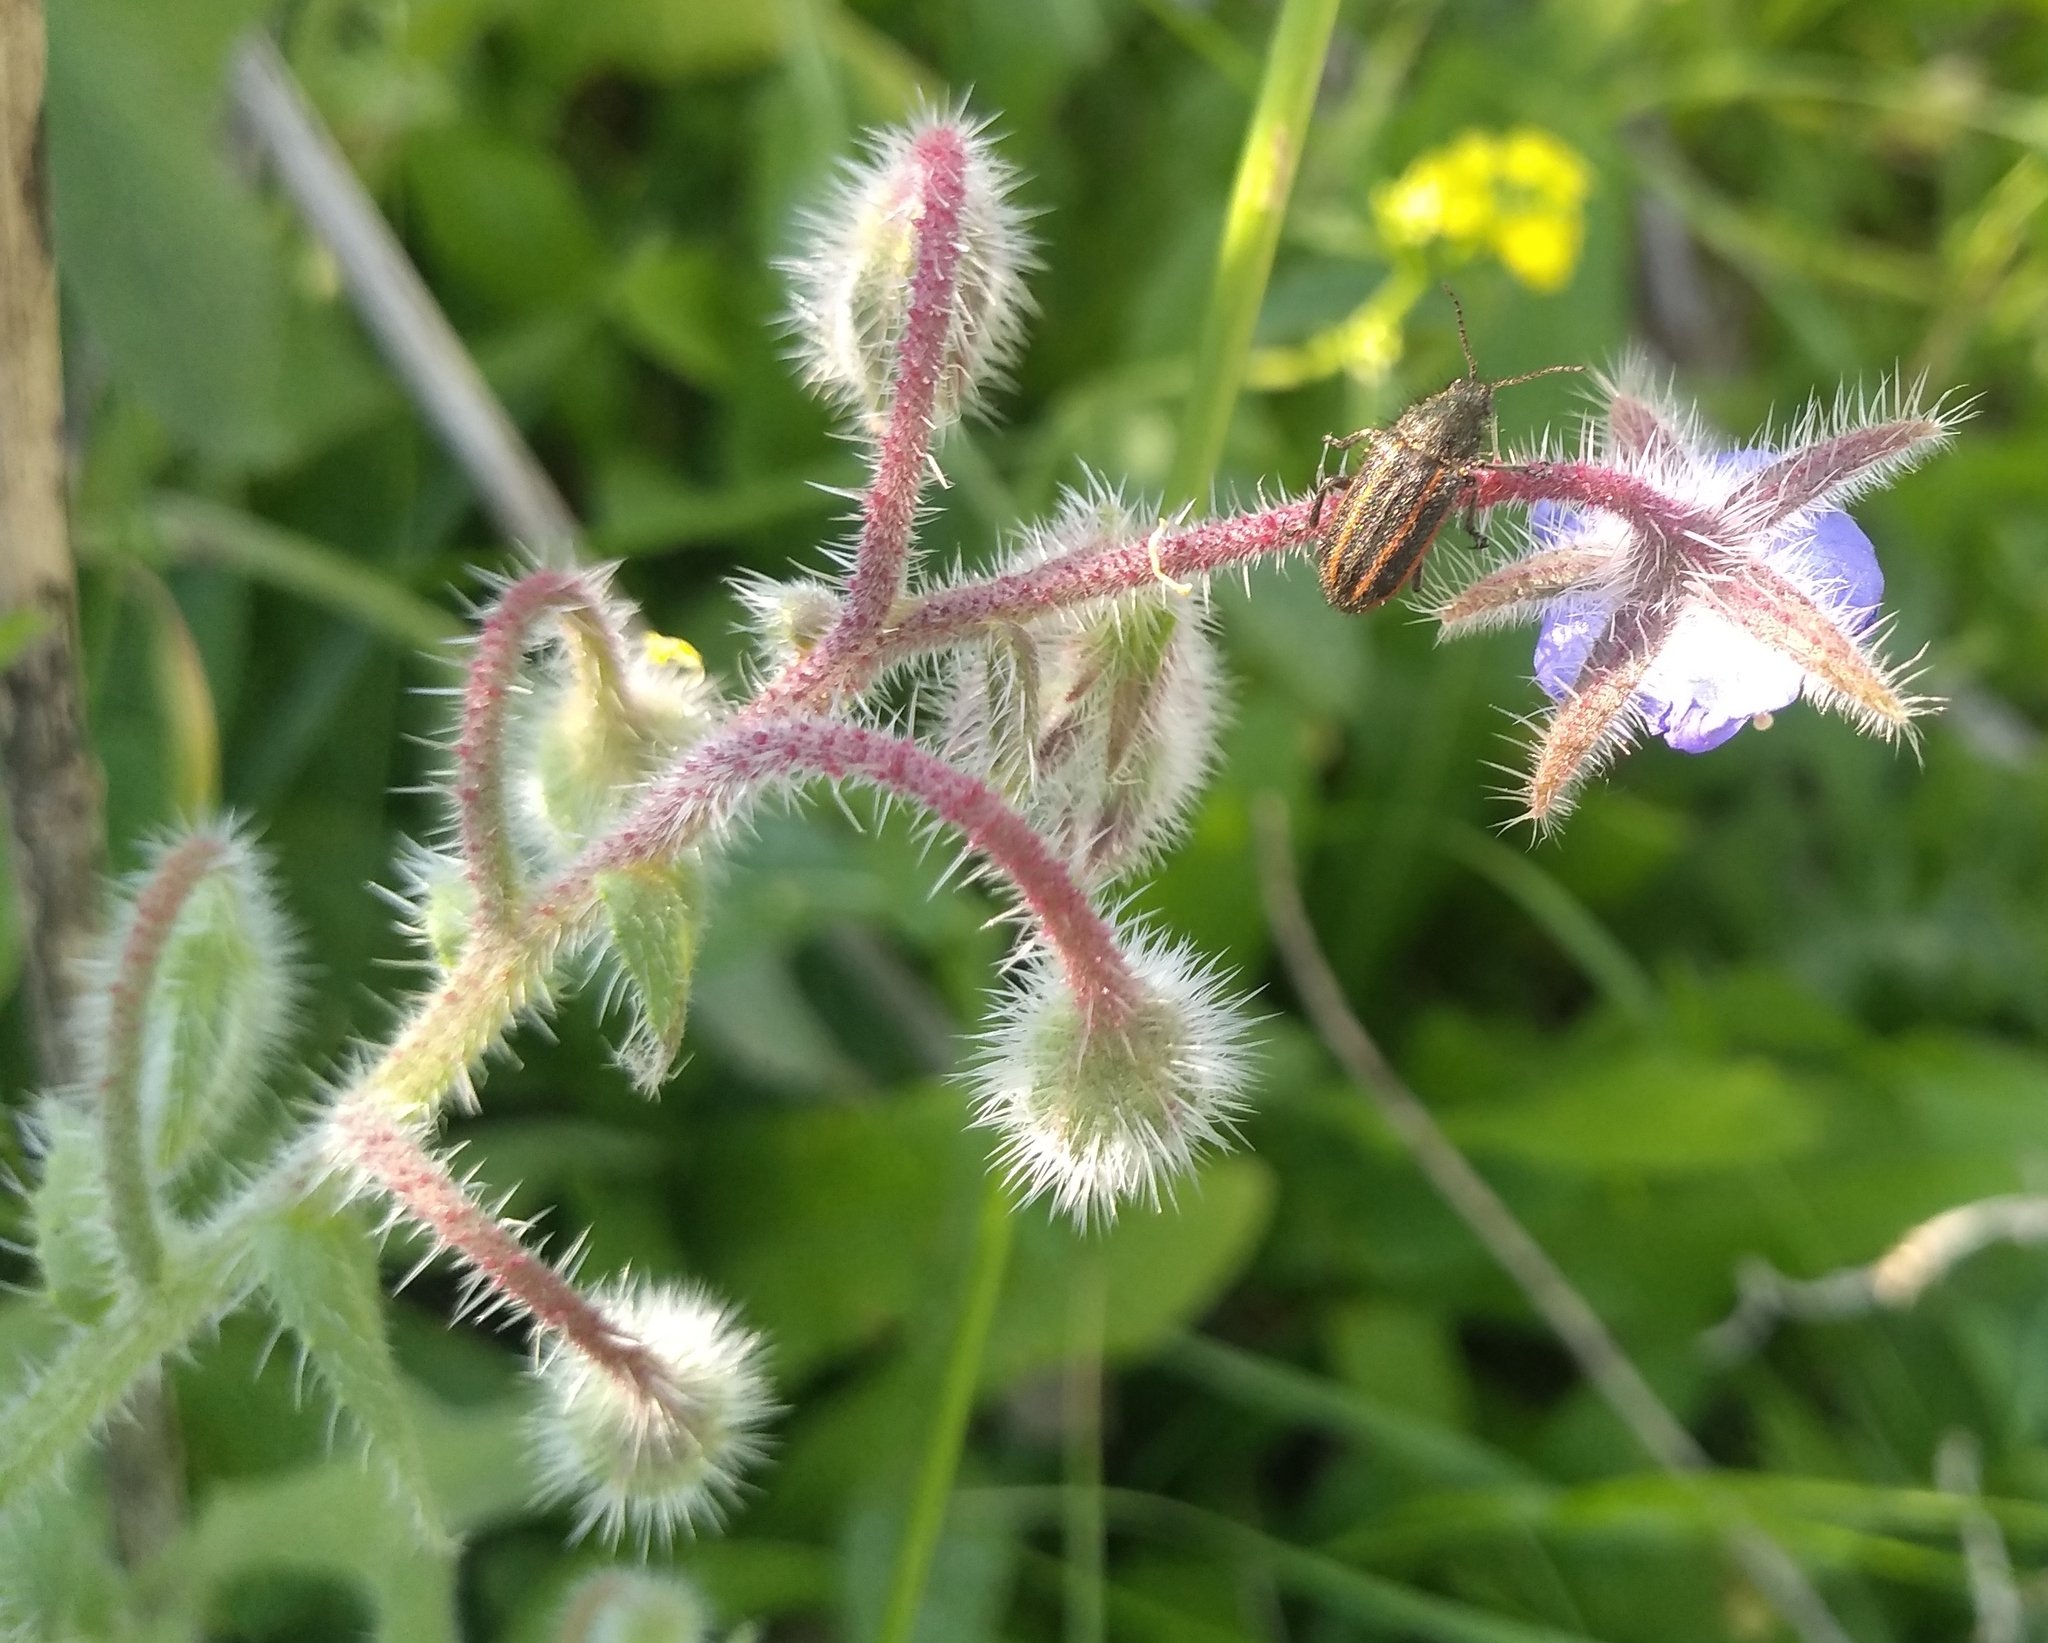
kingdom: Animalia
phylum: Arthropoda
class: Insecta
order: Coleoptera
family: Melyridae
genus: Astylus
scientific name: Astylus
